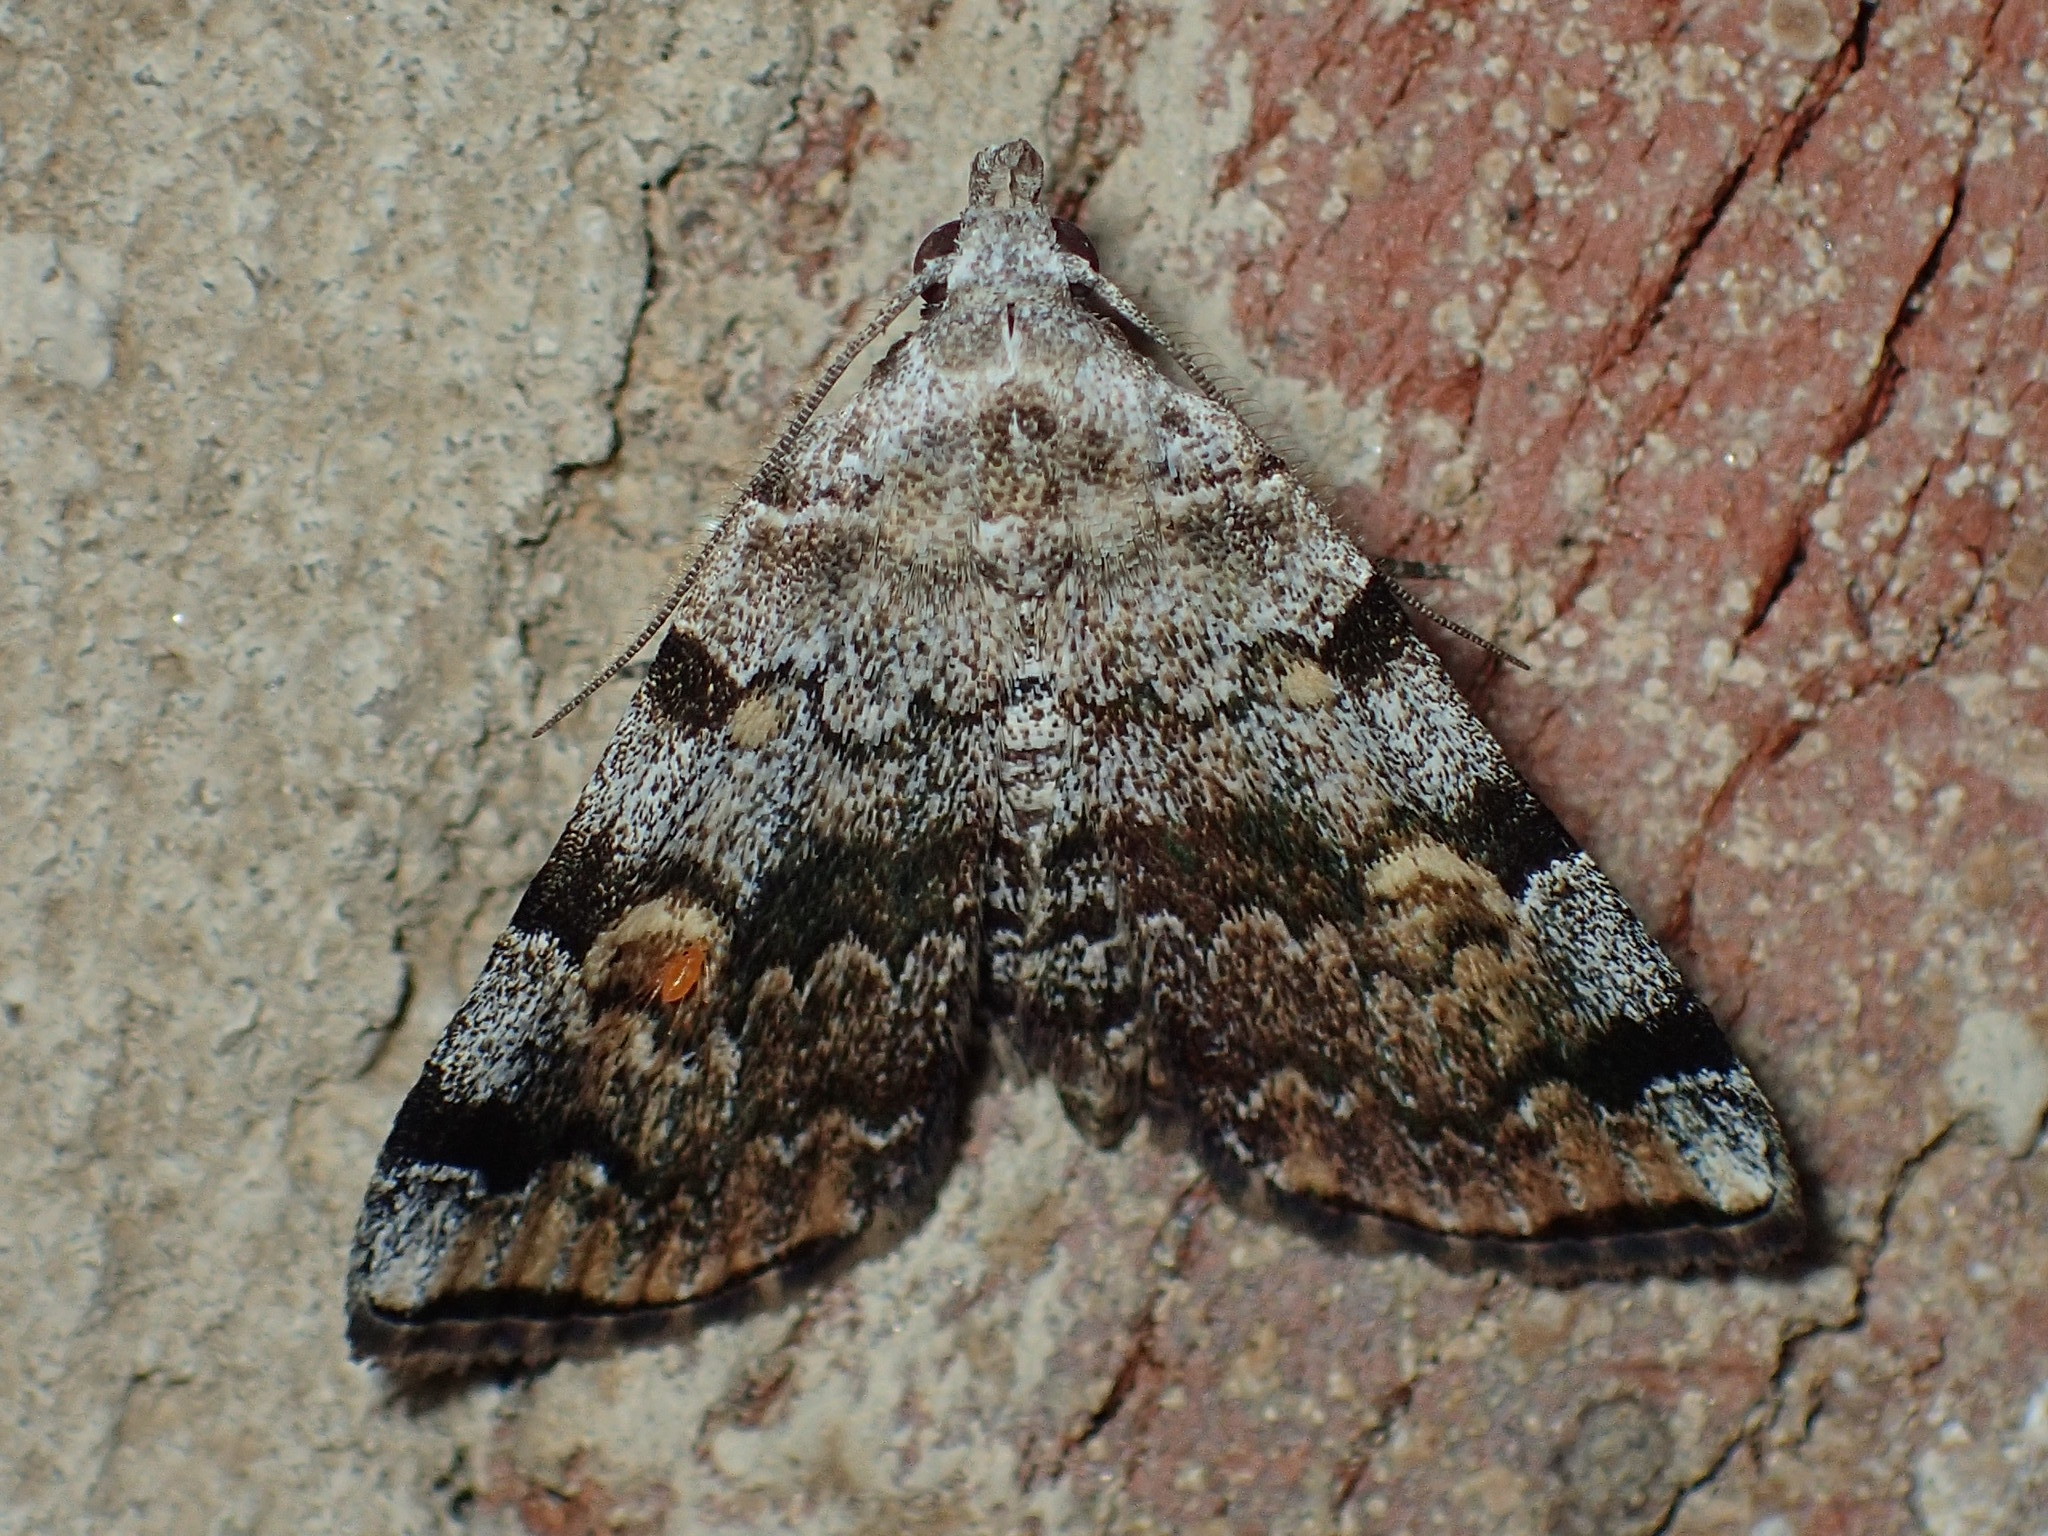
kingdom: Animalia
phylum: Arthropoda
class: Insecta
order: Lepidoptera
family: Erebidae
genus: Idia
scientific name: Idia americalis
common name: American idia moth
